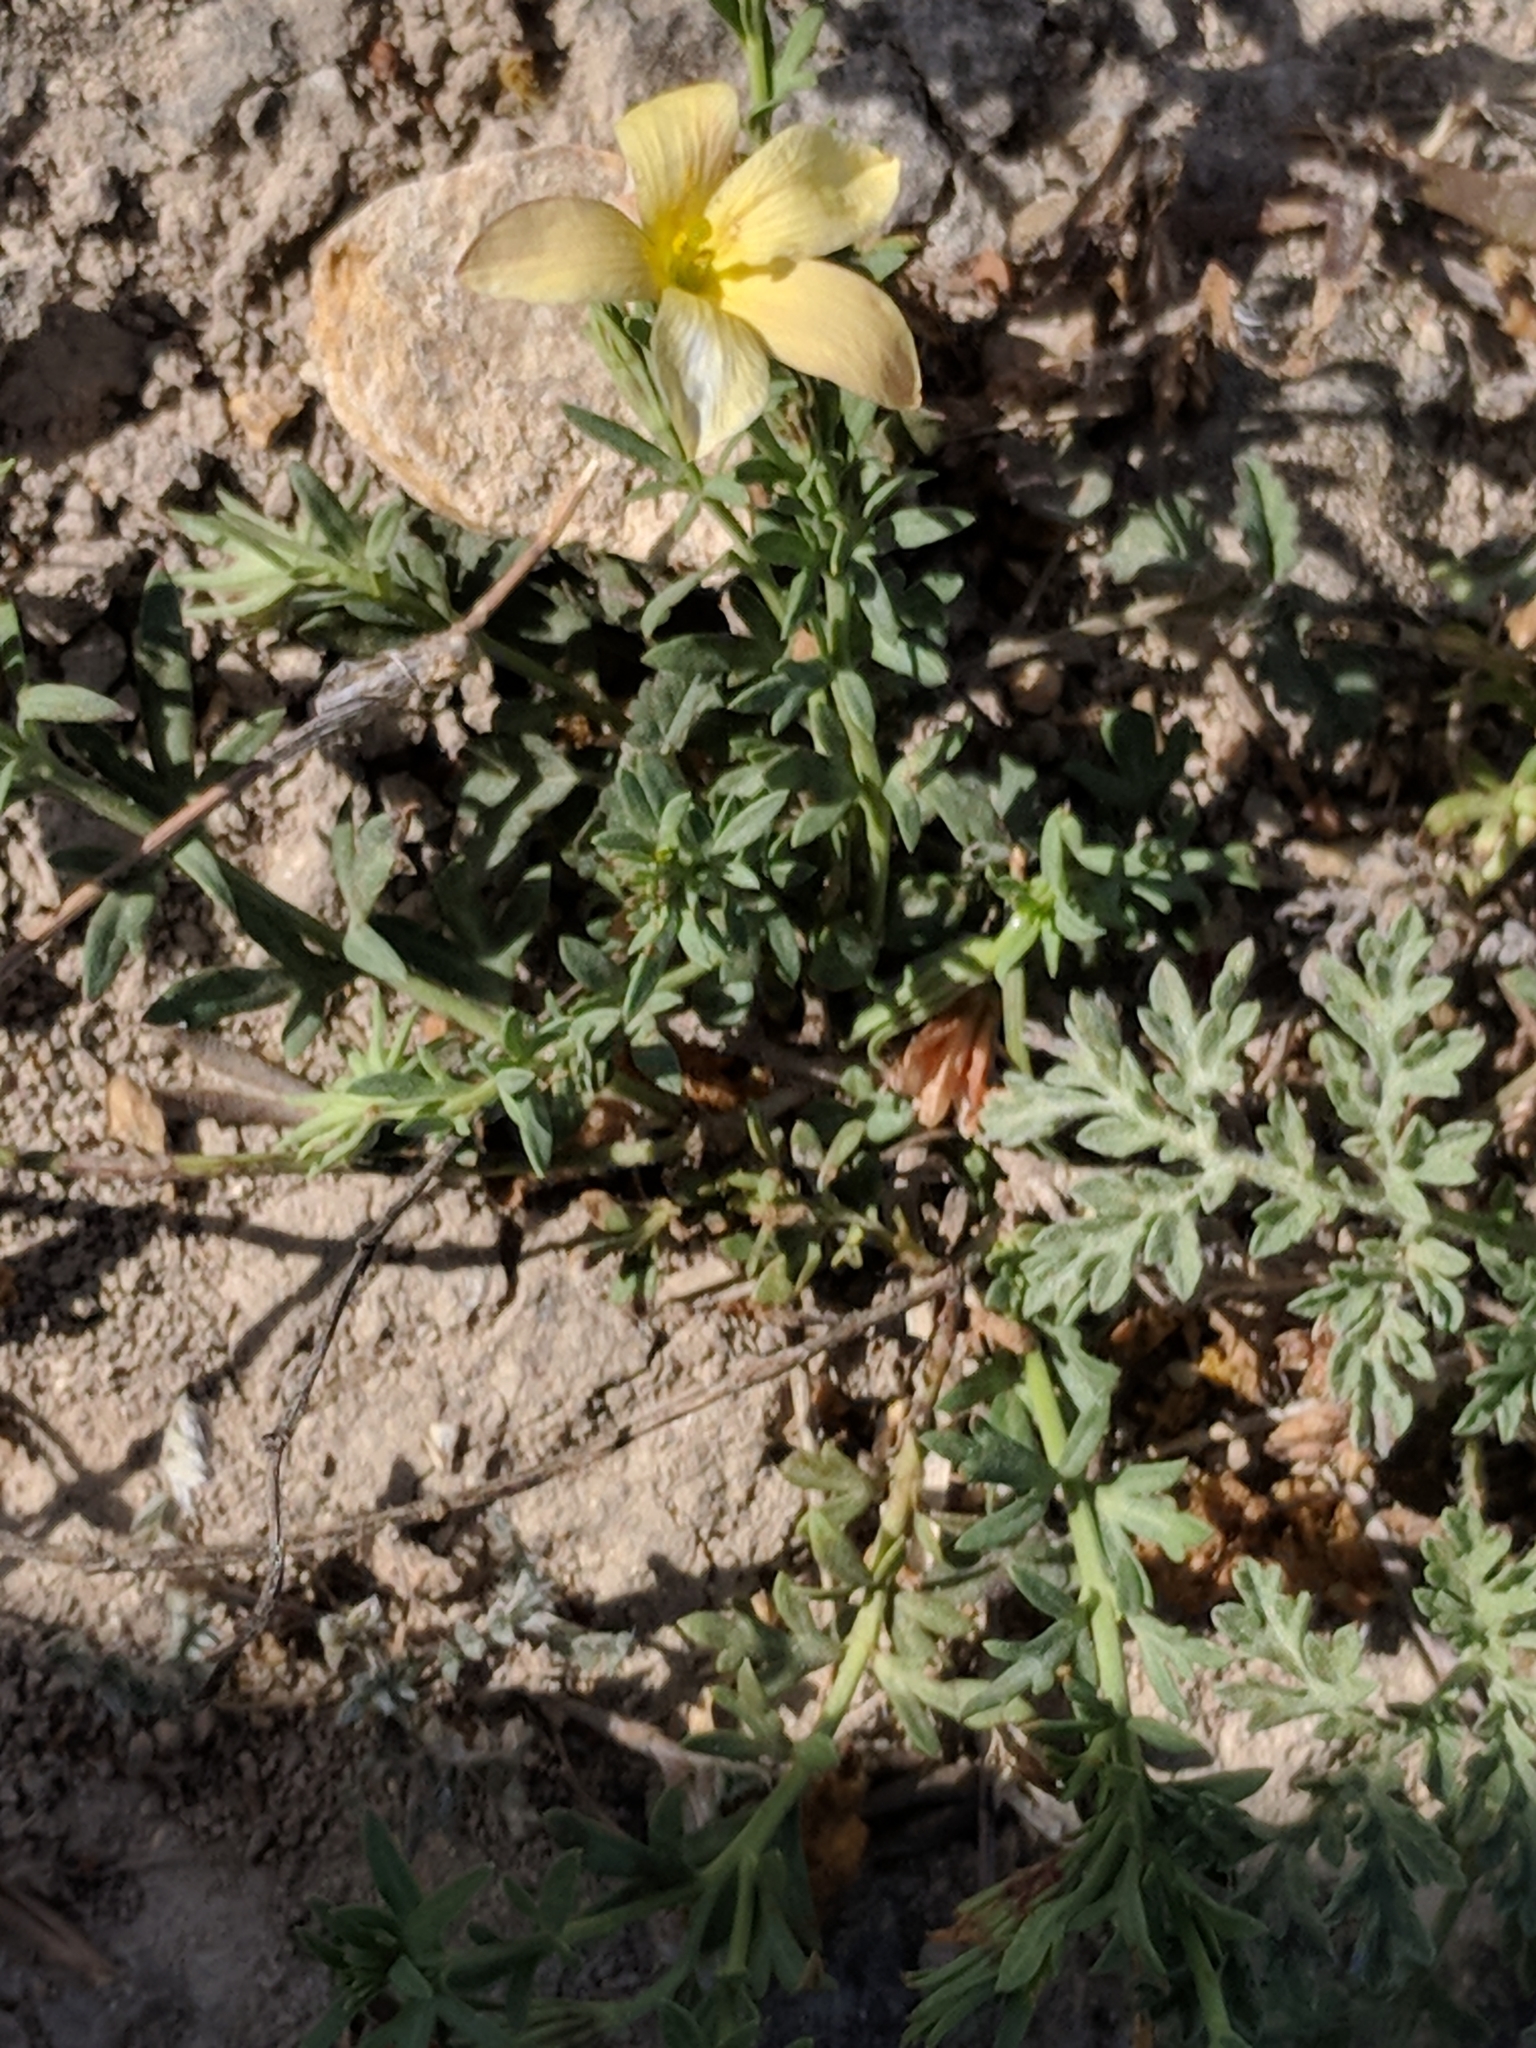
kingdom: Plantae
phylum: Tracheophyta
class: Magnoliopsida
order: Lamiales
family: Oleaceae
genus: Menodora
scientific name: Menodora heterophylla
